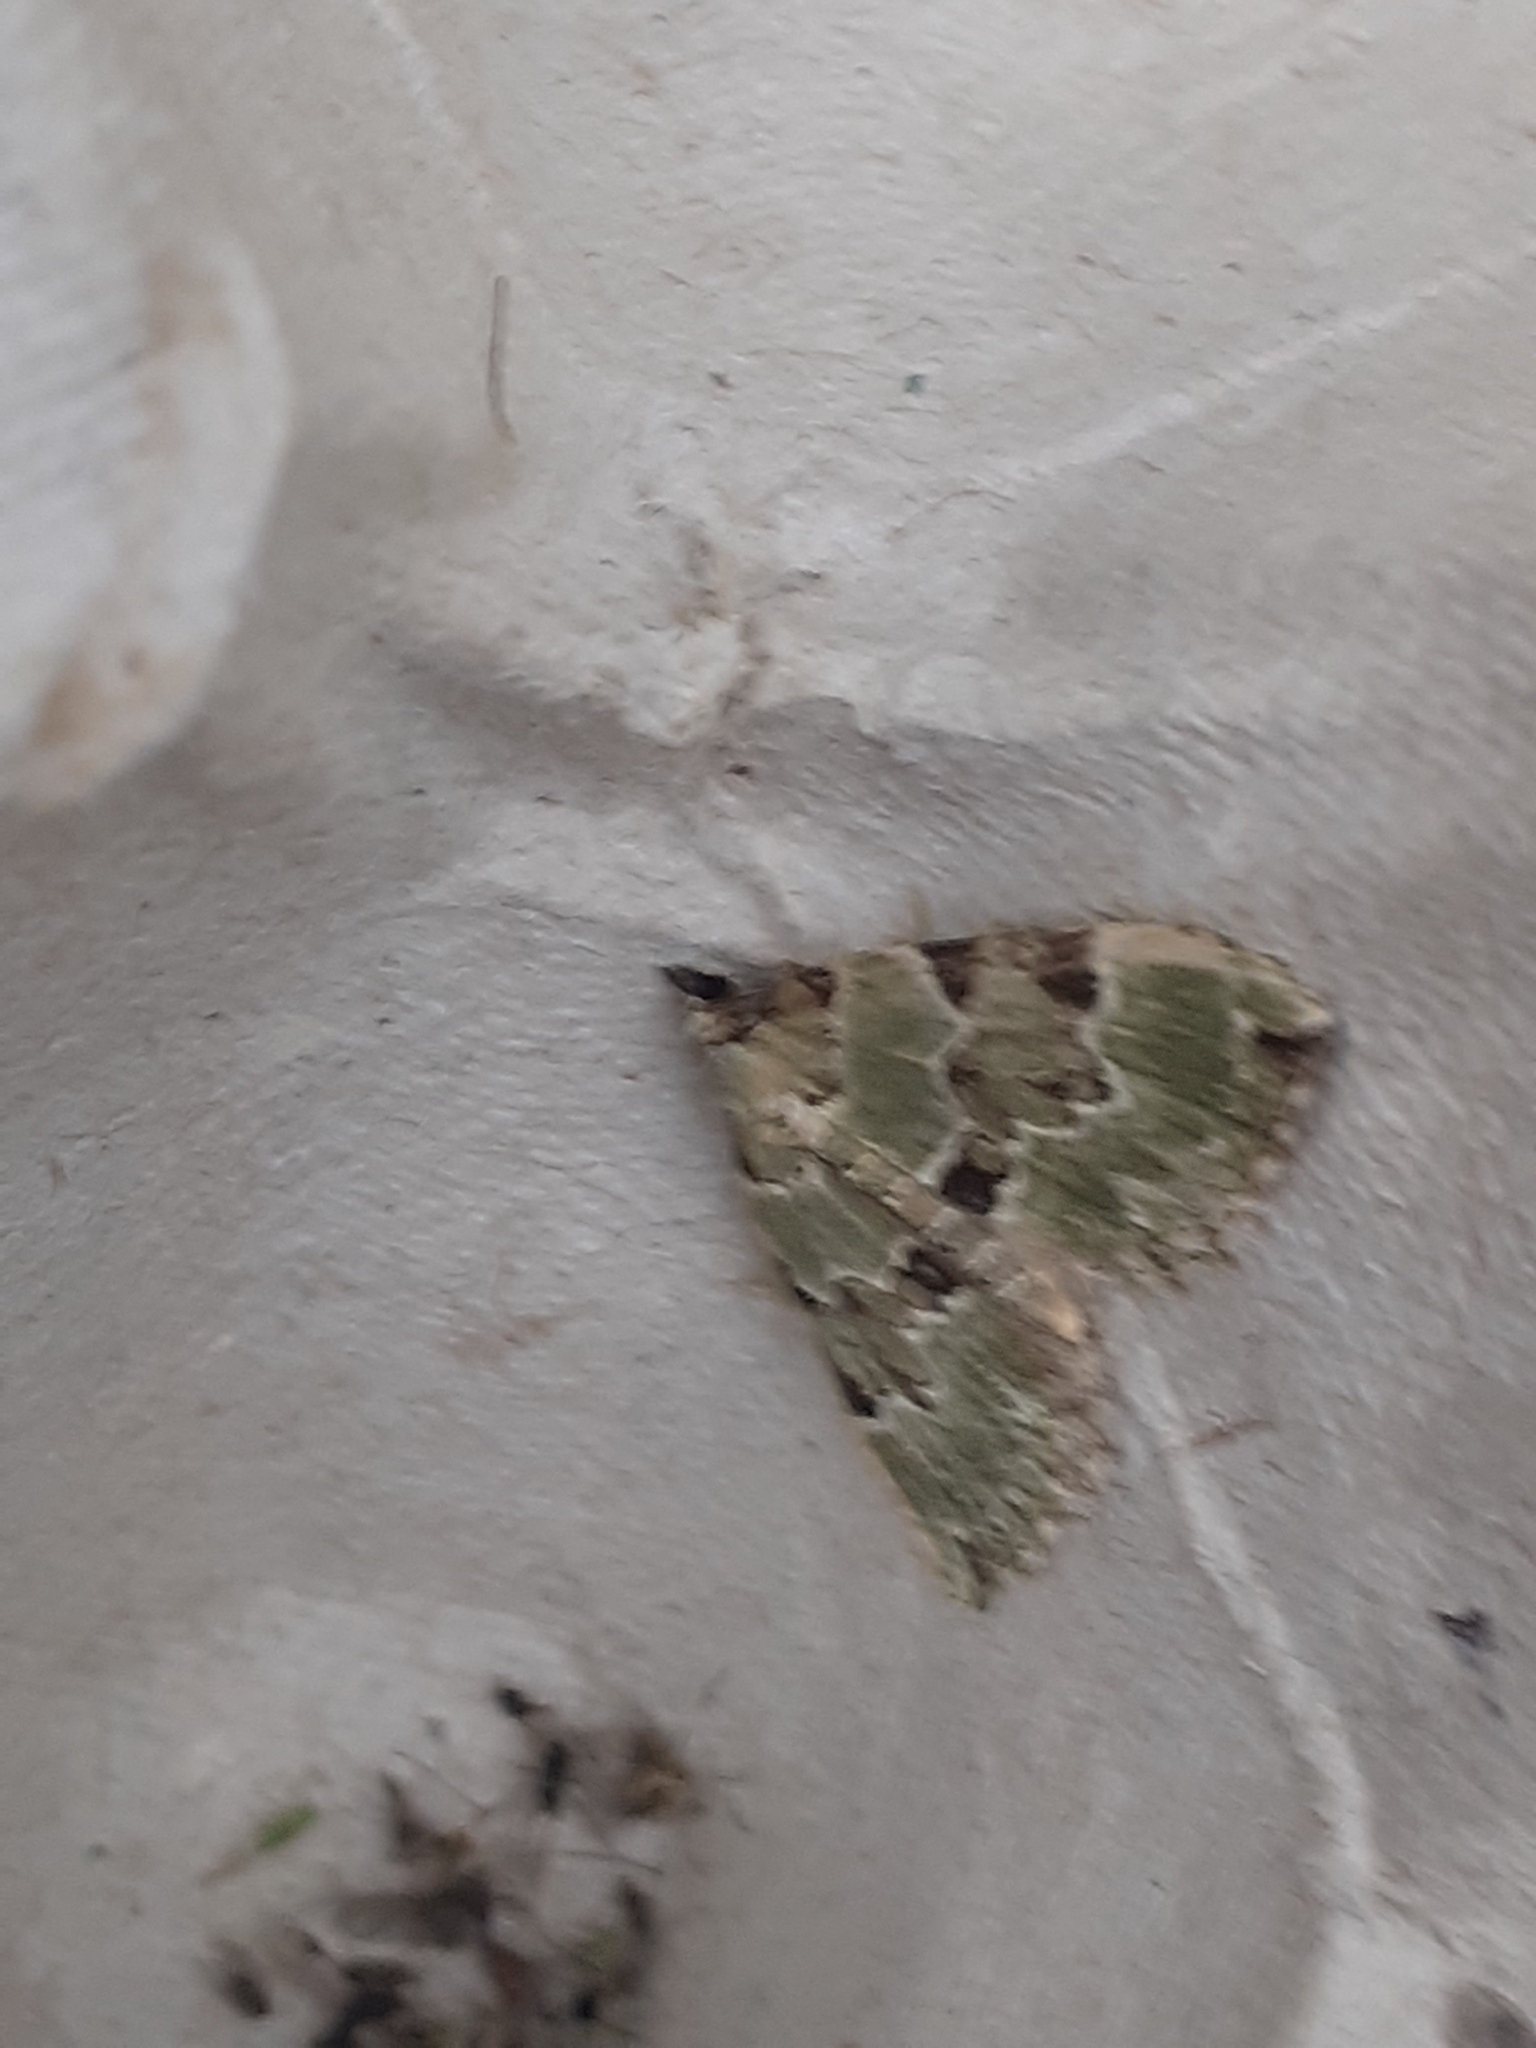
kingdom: Animalia
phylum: Arthropoda
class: Insecta
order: Lepidoptera
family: Geometridae
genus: Colostygia
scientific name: Colostygia pectinataria
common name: Green carpet
